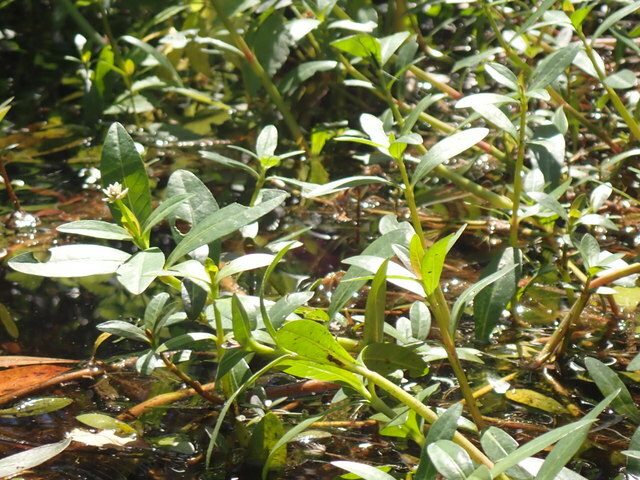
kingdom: Plantae
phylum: Tracheophyta
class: Magnoliopsida
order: Caryophyllales
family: Amaranthaceae
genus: Alternanthera
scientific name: Alternanthera philoxeroides
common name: Alligatorweed
